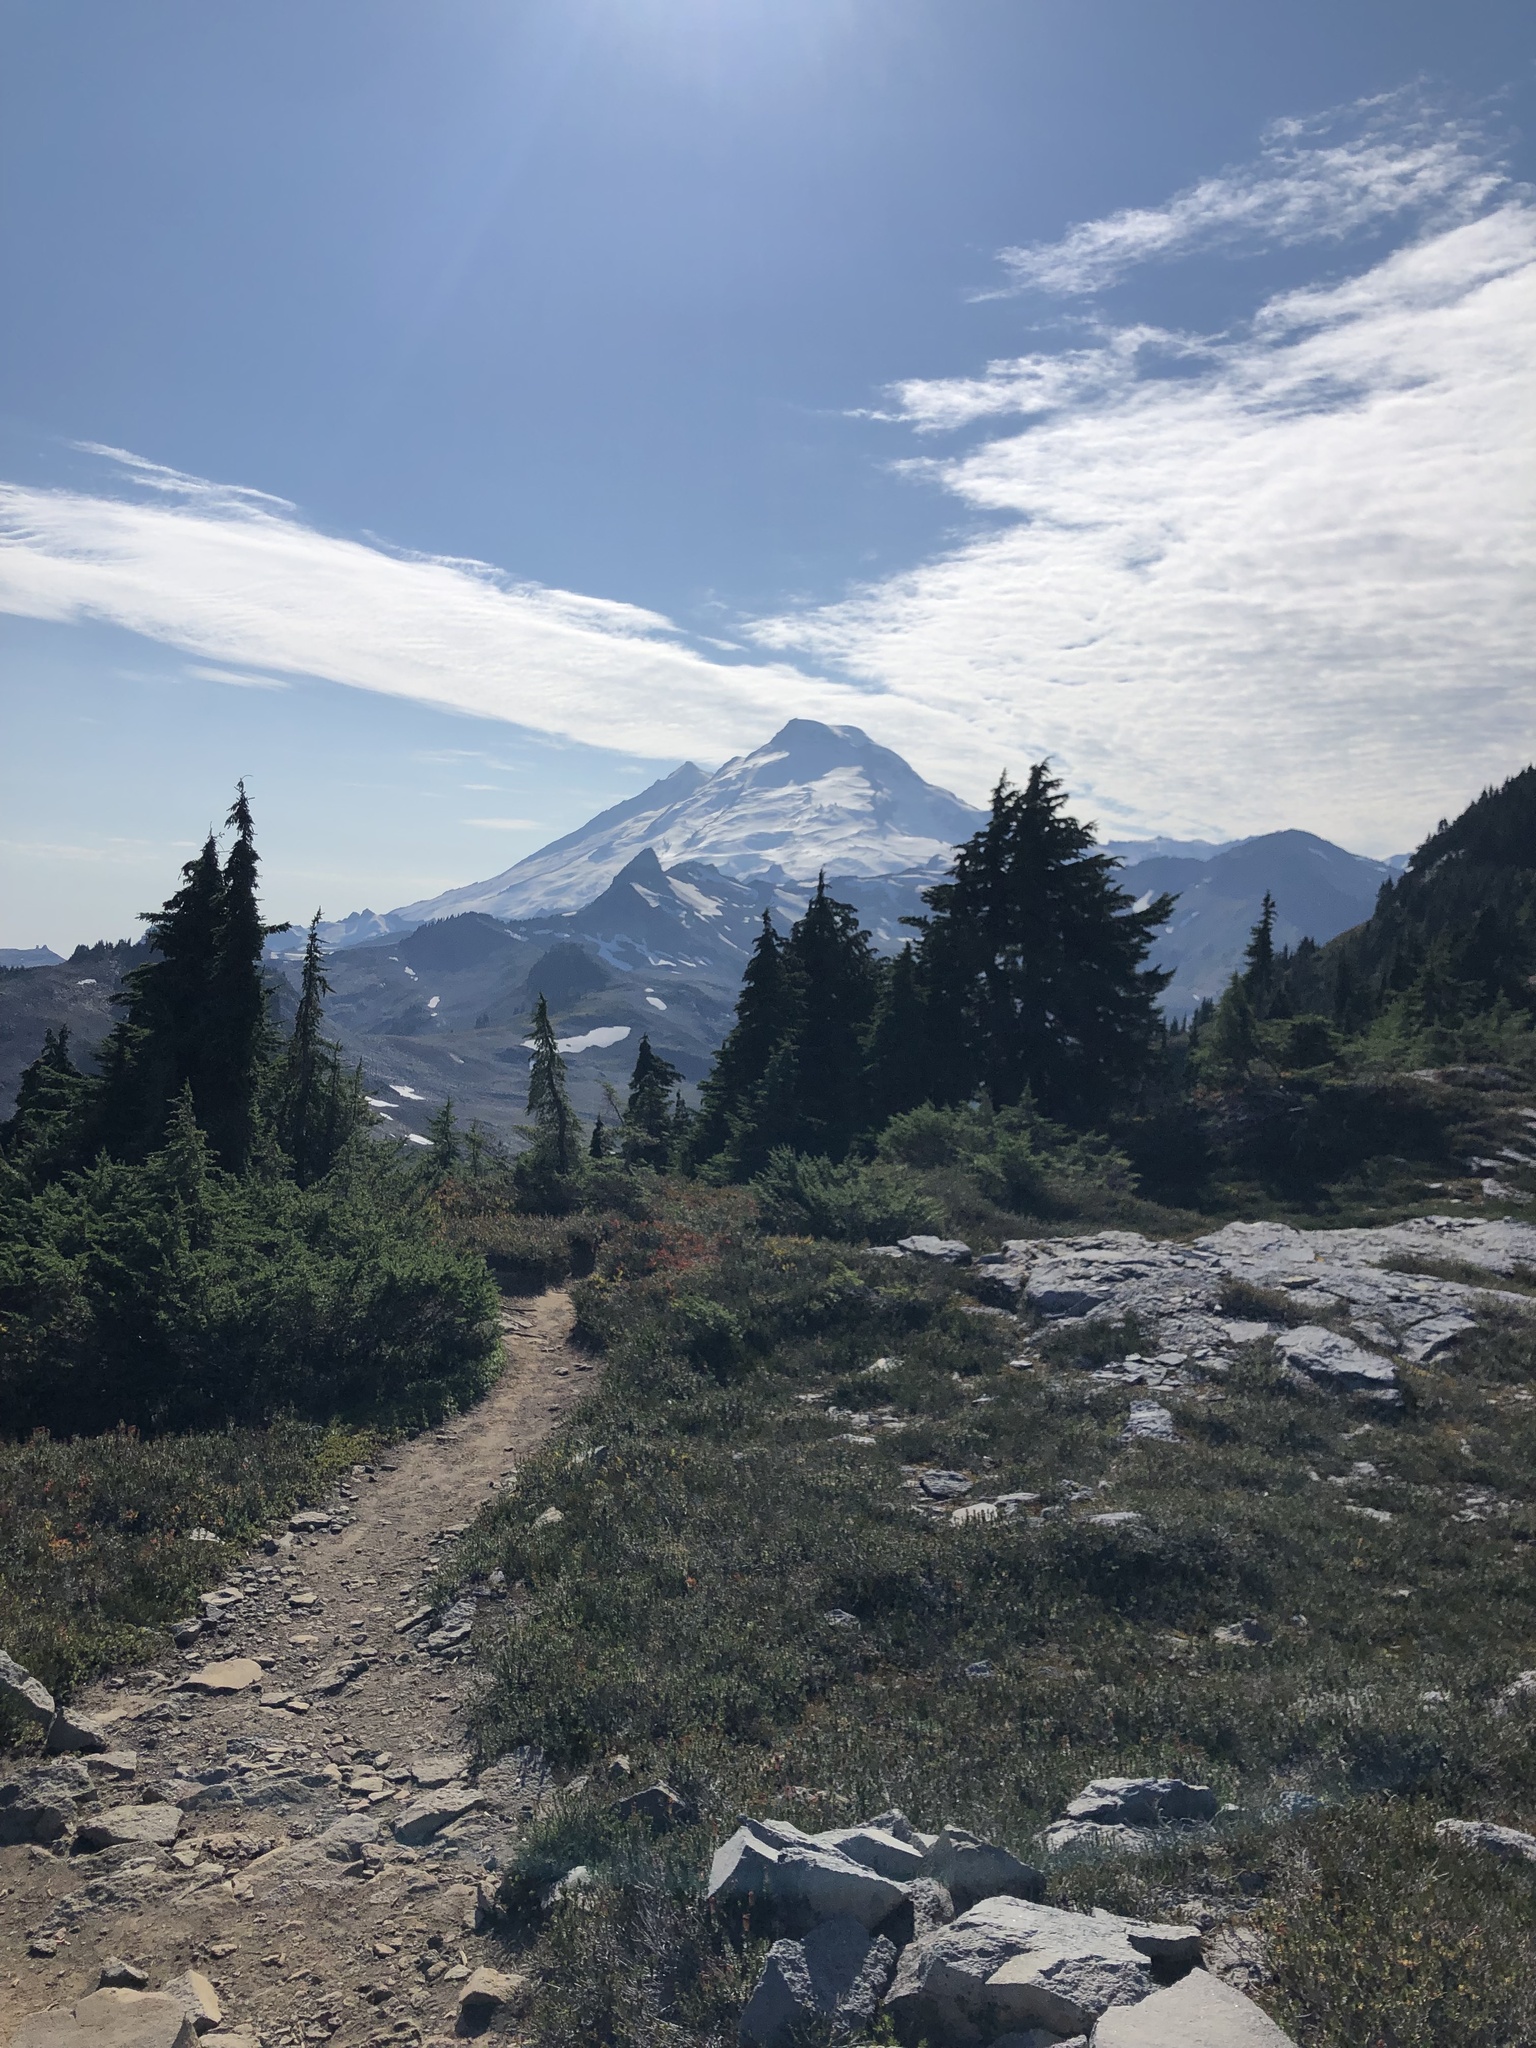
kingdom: Plantae
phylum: Tracheophyta
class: Pinopsida
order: Pinales
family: Pinaceae
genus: Tsuga
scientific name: Tsuga mertensiana
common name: Mountain hemlock
